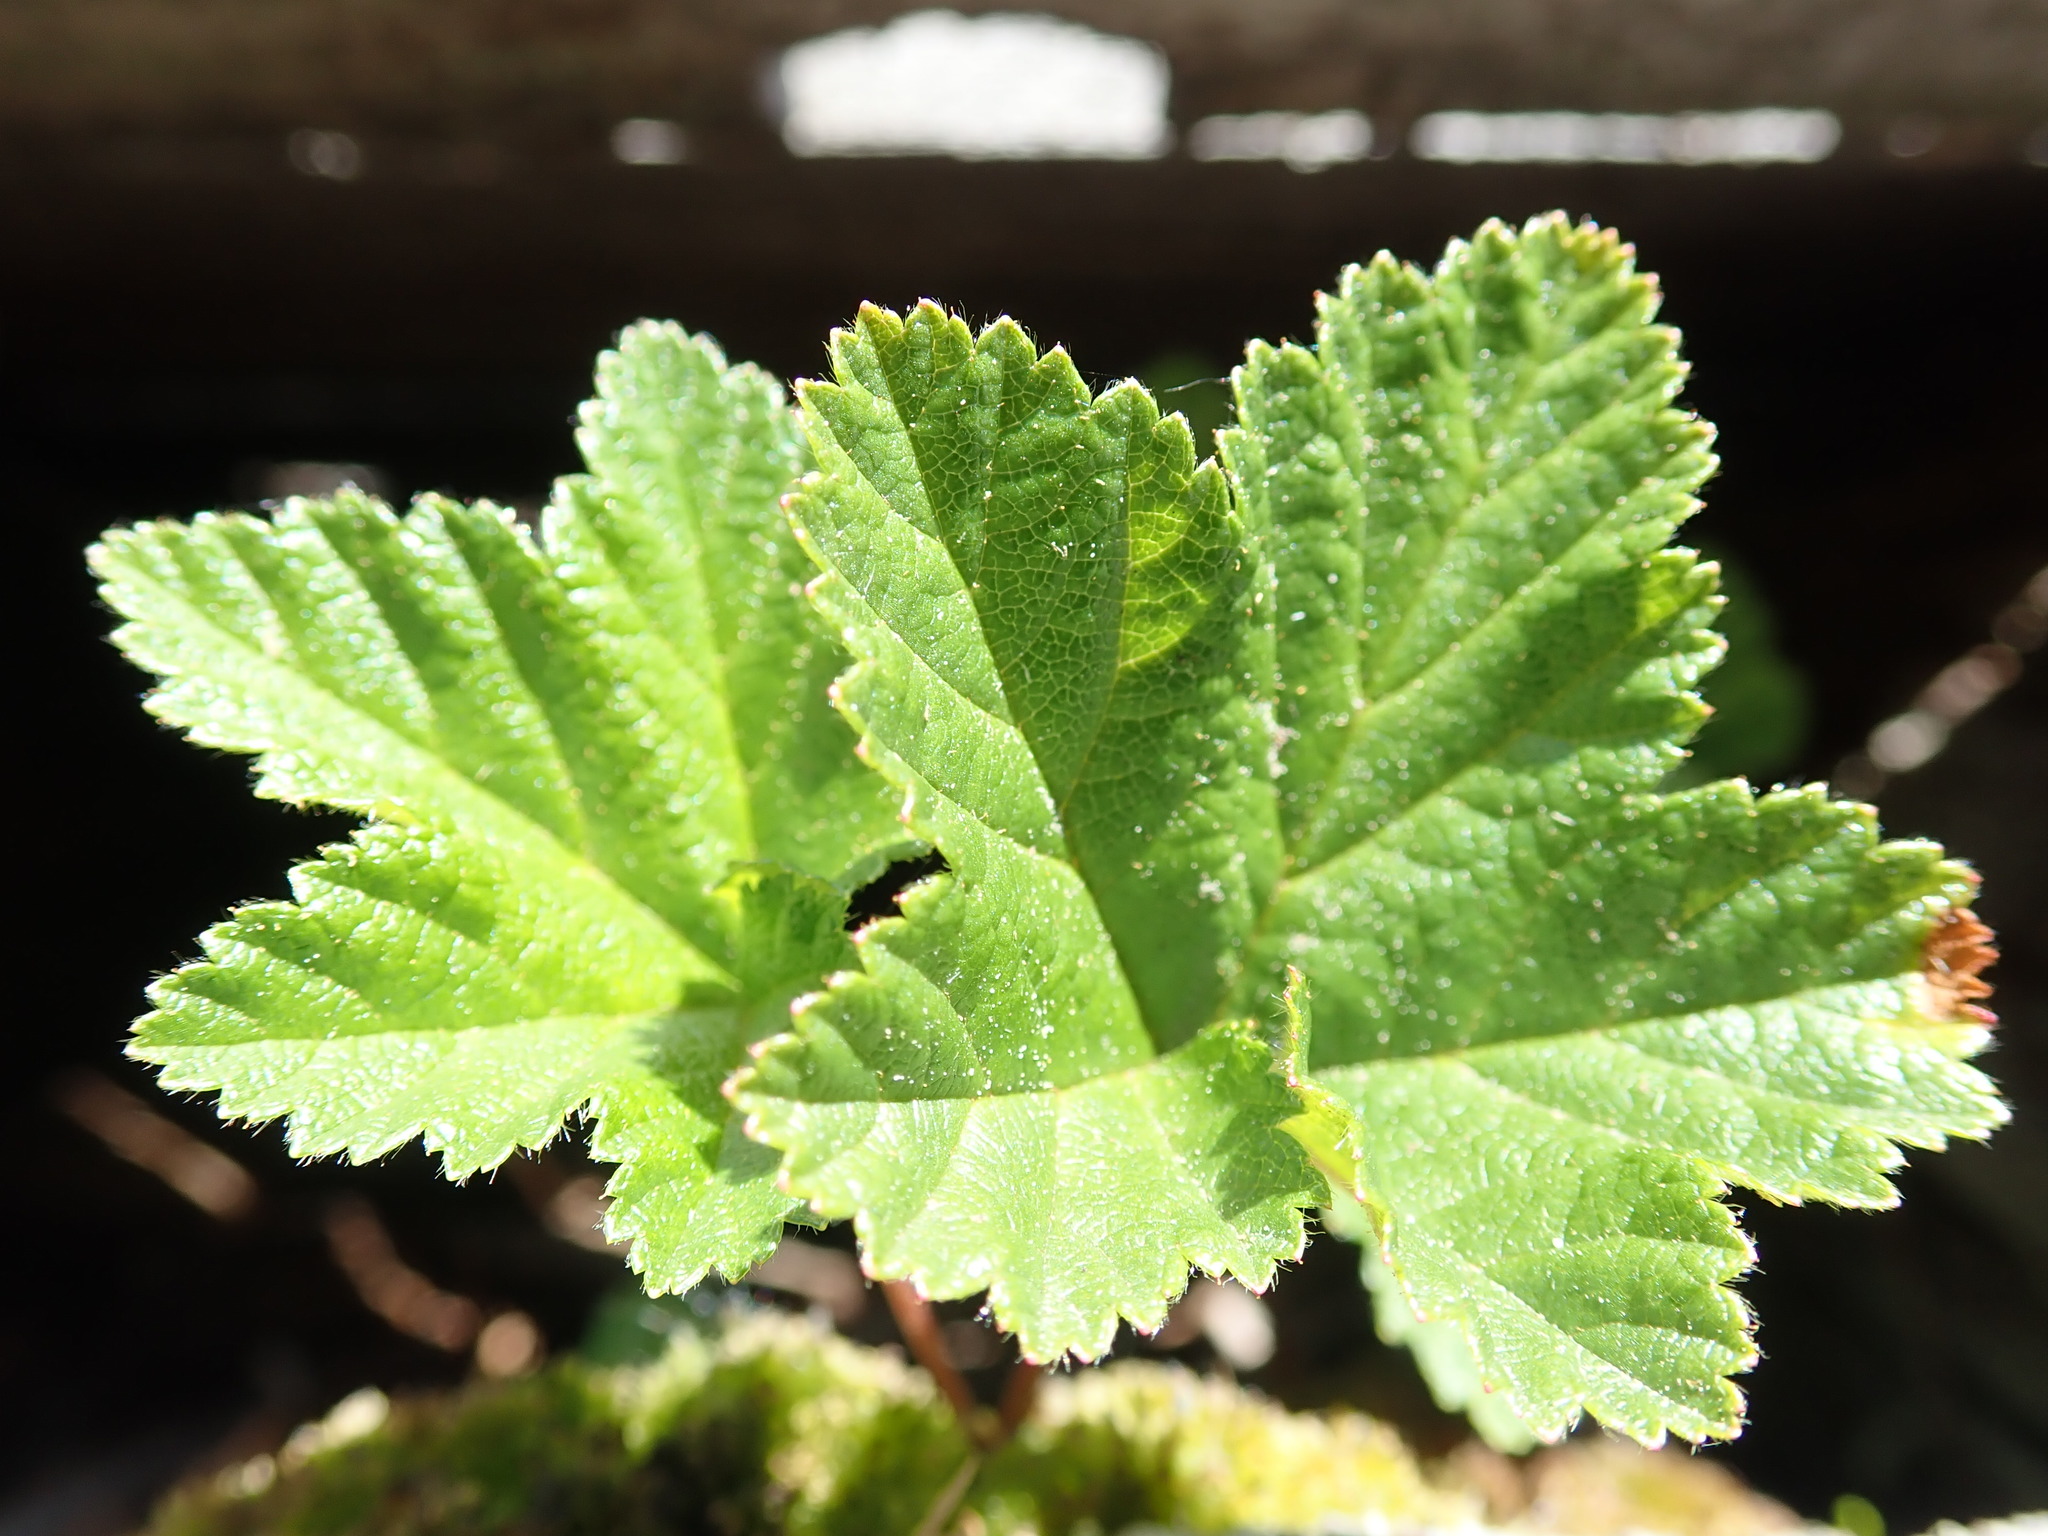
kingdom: Plantae
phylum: Tracheophyta
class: Magnoliopsida
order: Rosales
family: Rosaceae
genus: Rubus
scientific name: Rubus chamaemorus
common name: Cloudberry
